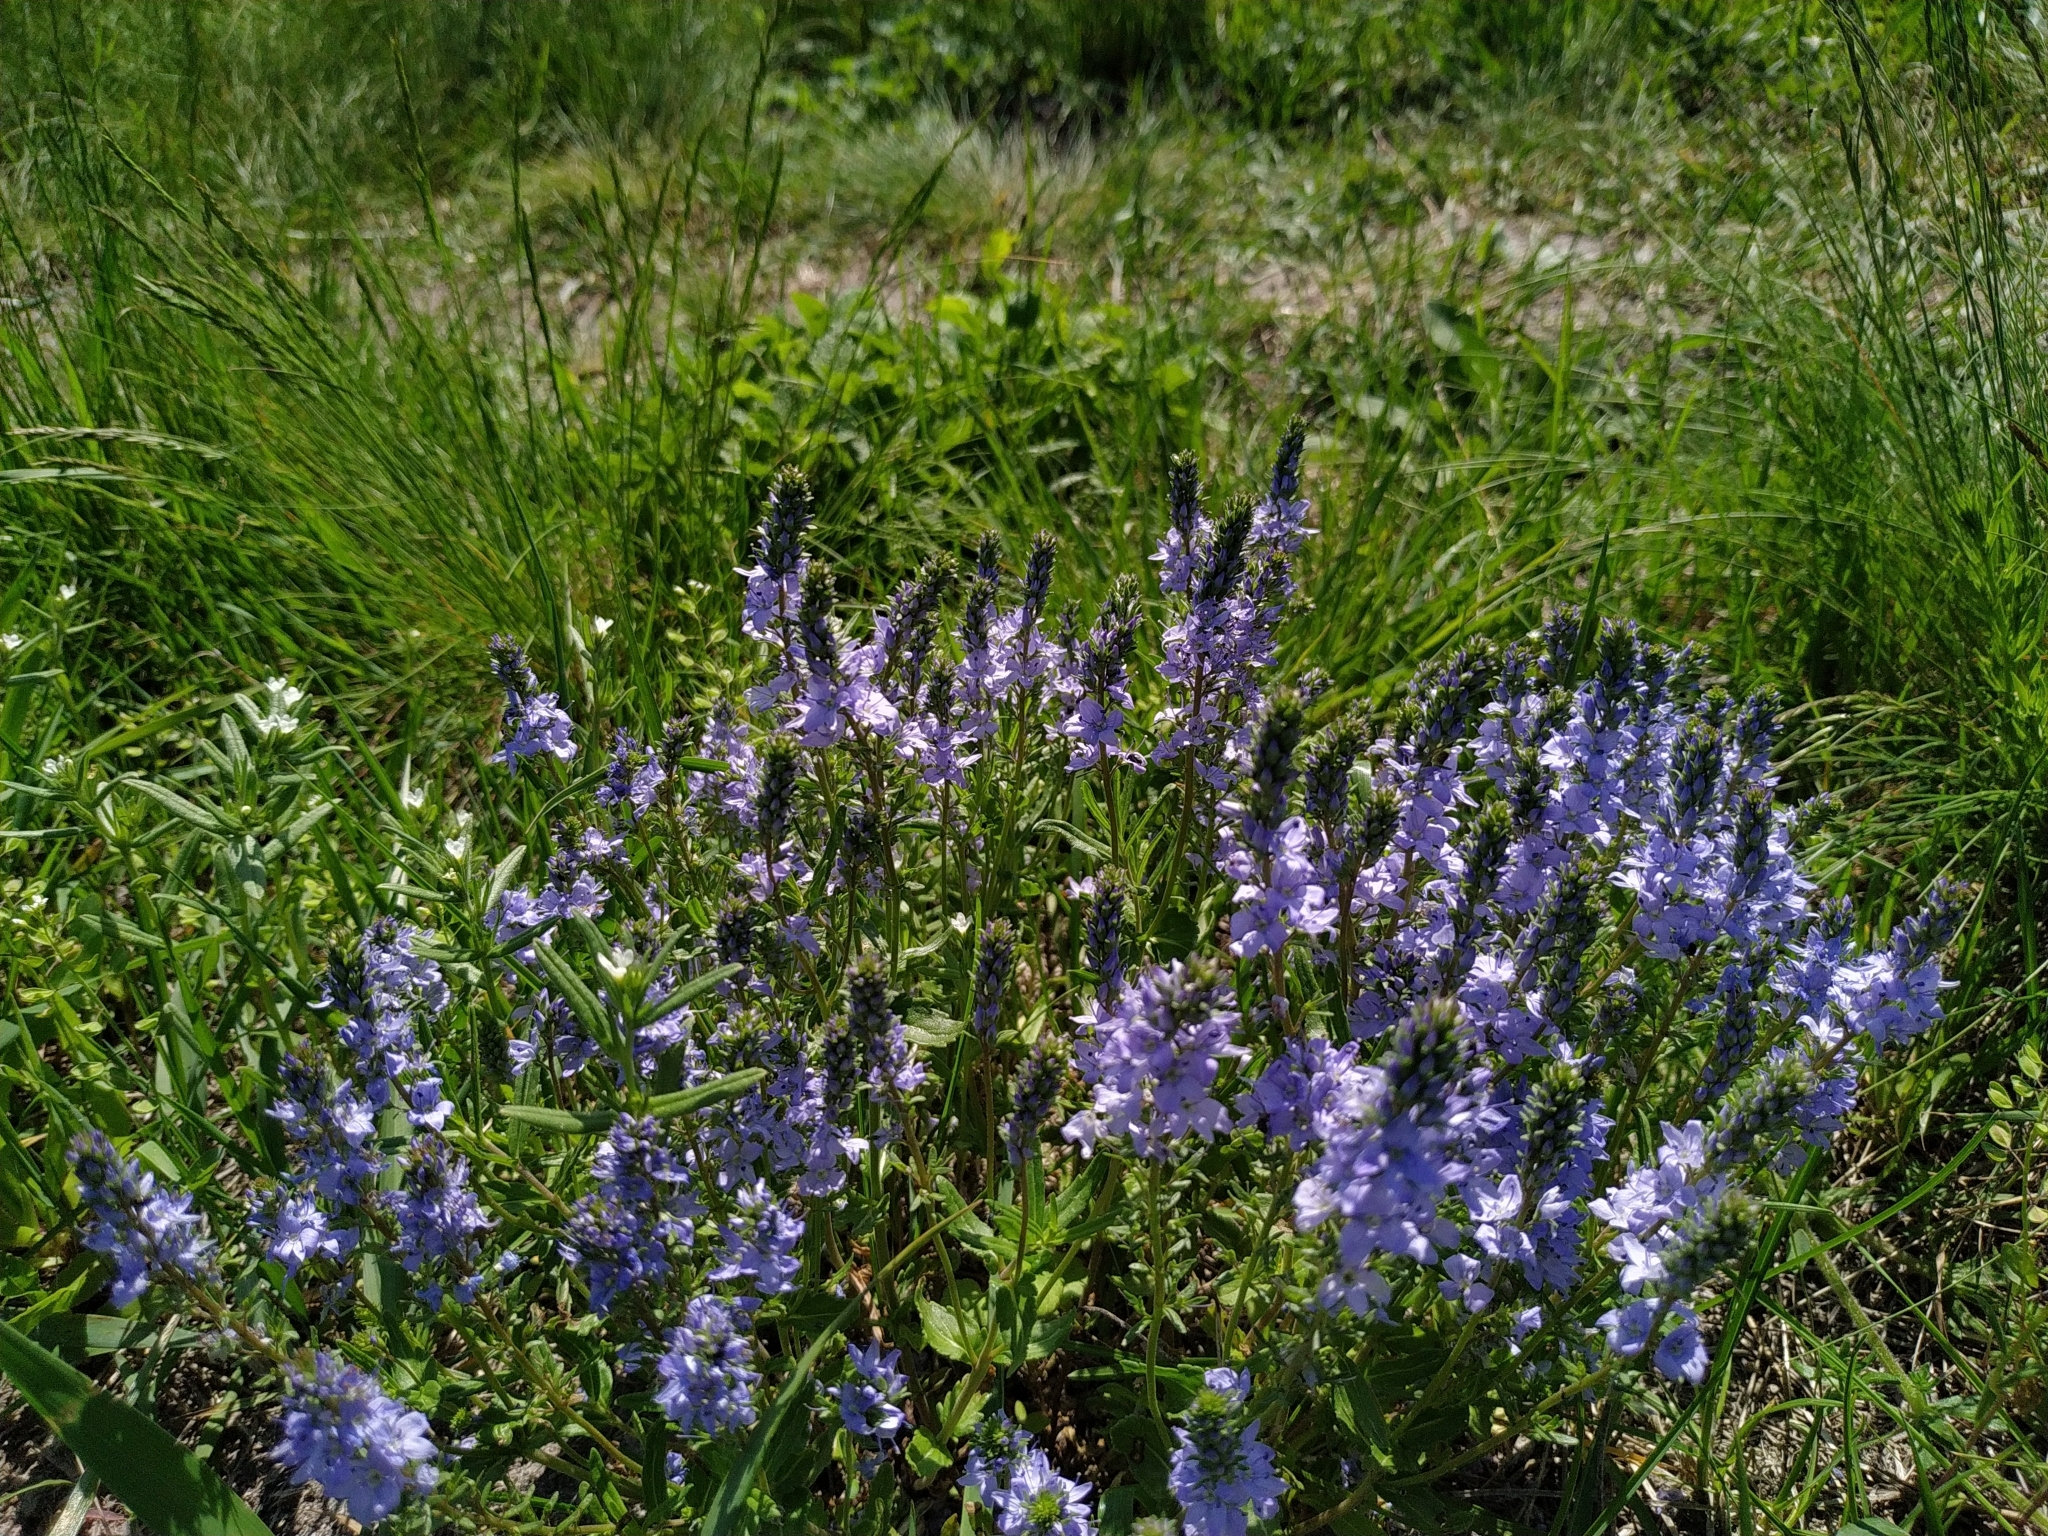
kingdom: Plantae
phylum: Tracheophyta
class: Magnoliopsida
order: Lamiales
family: Plantaginaceae
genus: Veronica
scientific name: Veronica austriaca
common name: Large speedwell
